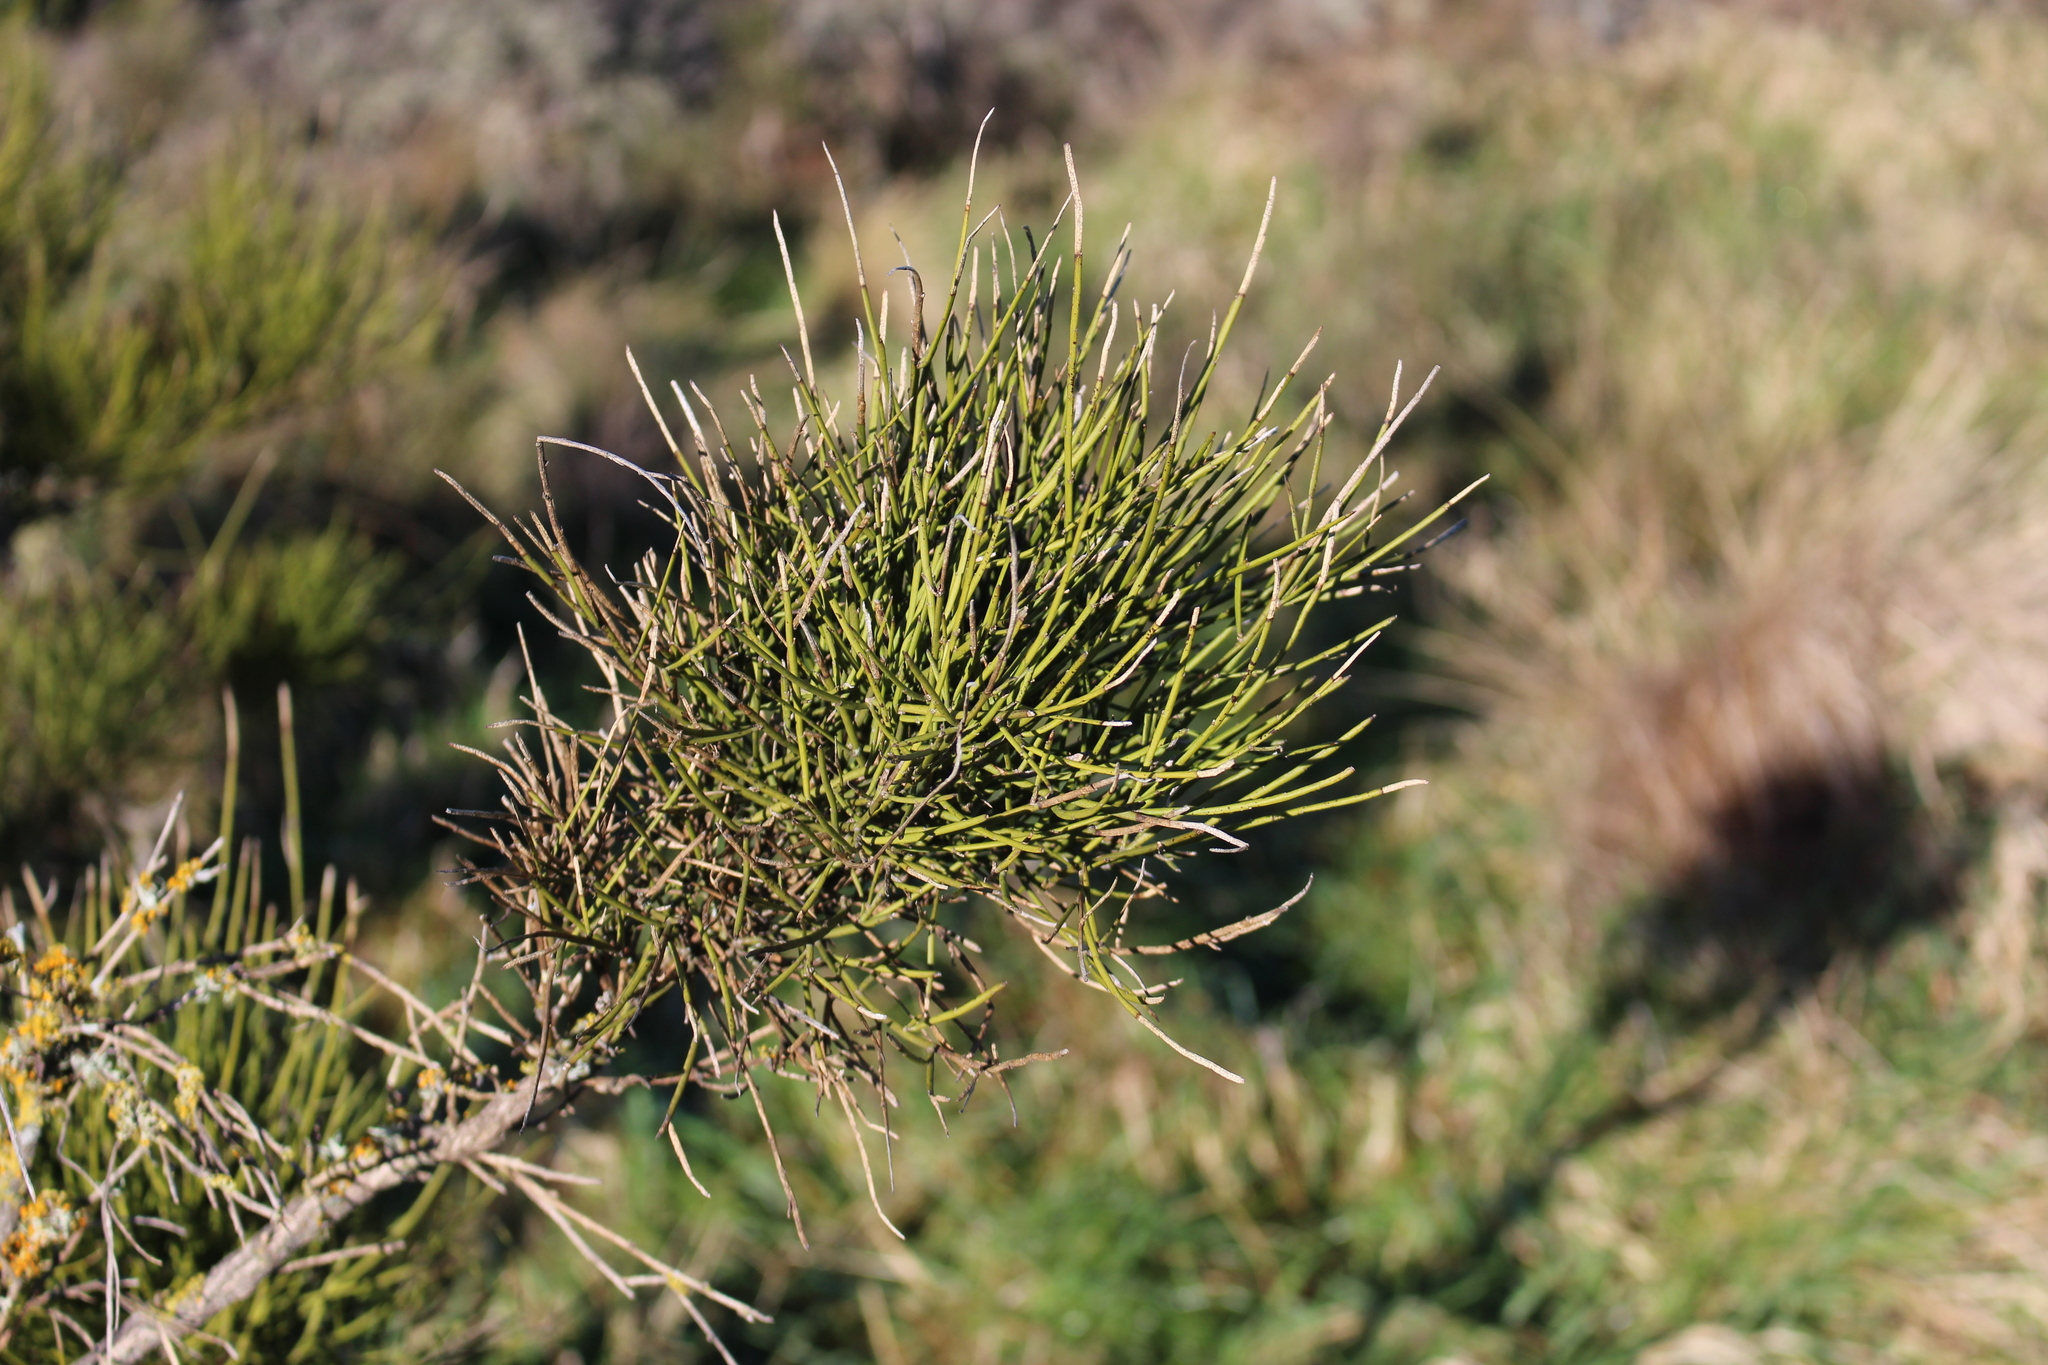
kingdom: Plantae
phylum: Tracheophyta
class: Magnoliopsida
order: Fabales
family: Fabaceae
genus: Carmichaelia
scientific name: Carmichaelia australis
